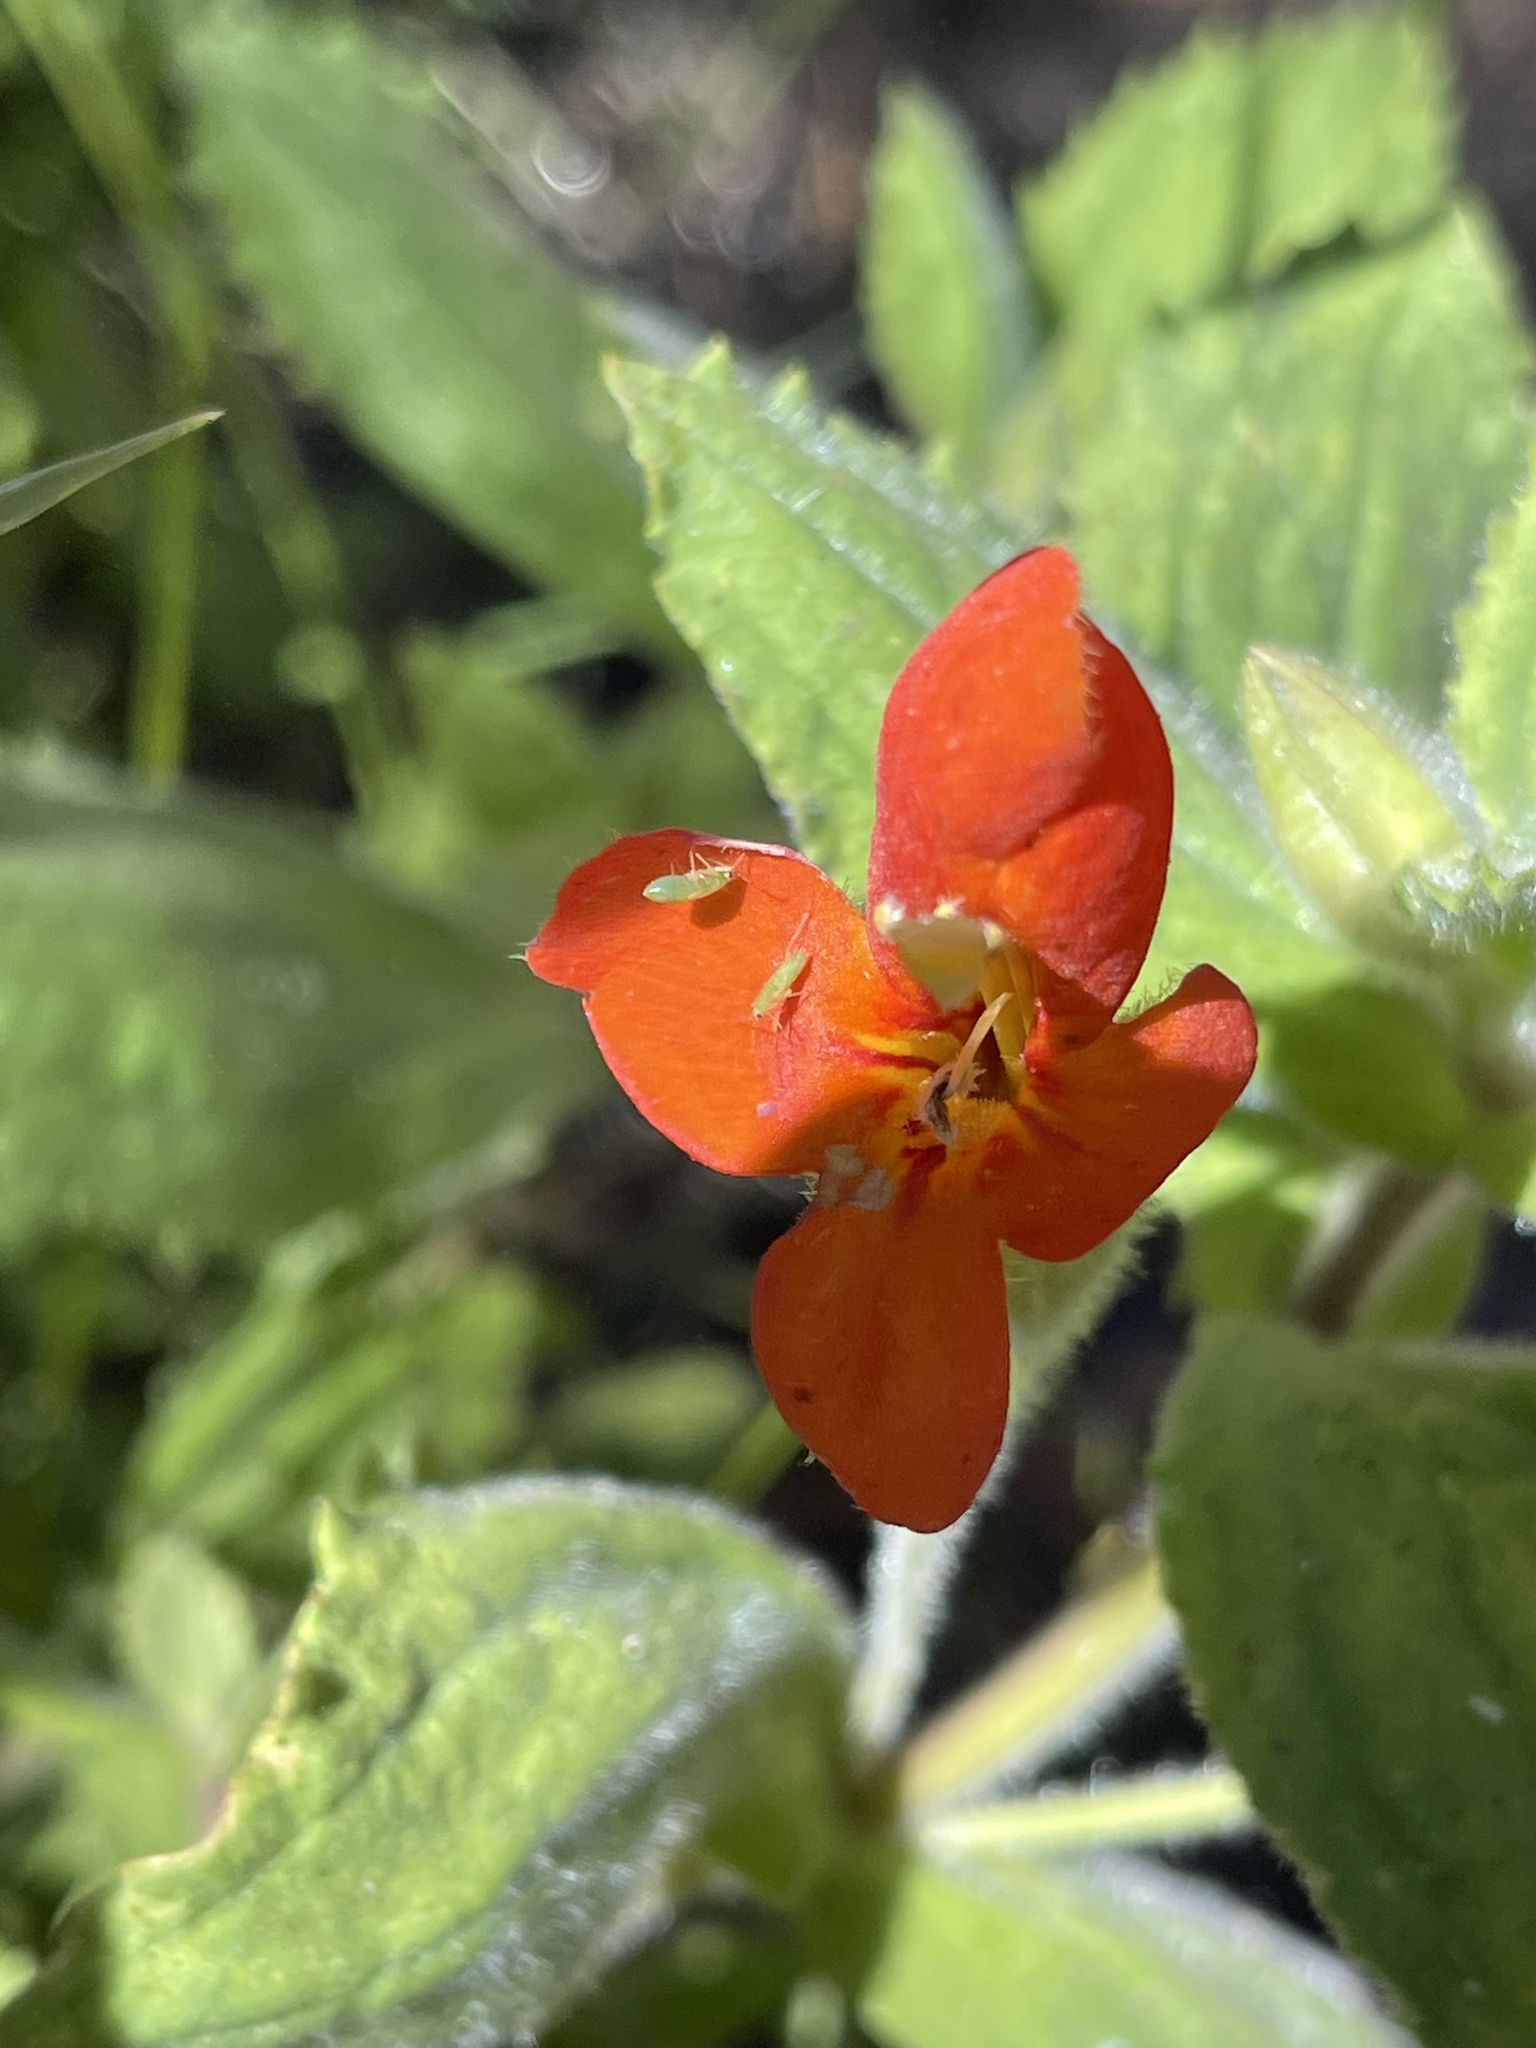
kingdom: Plantae
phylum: Tracheophyta
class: Magnoliopsida
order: Lamiales
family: Phrymaceae
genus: Erythranthe
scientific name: Erythranthe cardinalis
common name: Scarlet monkey-flower
